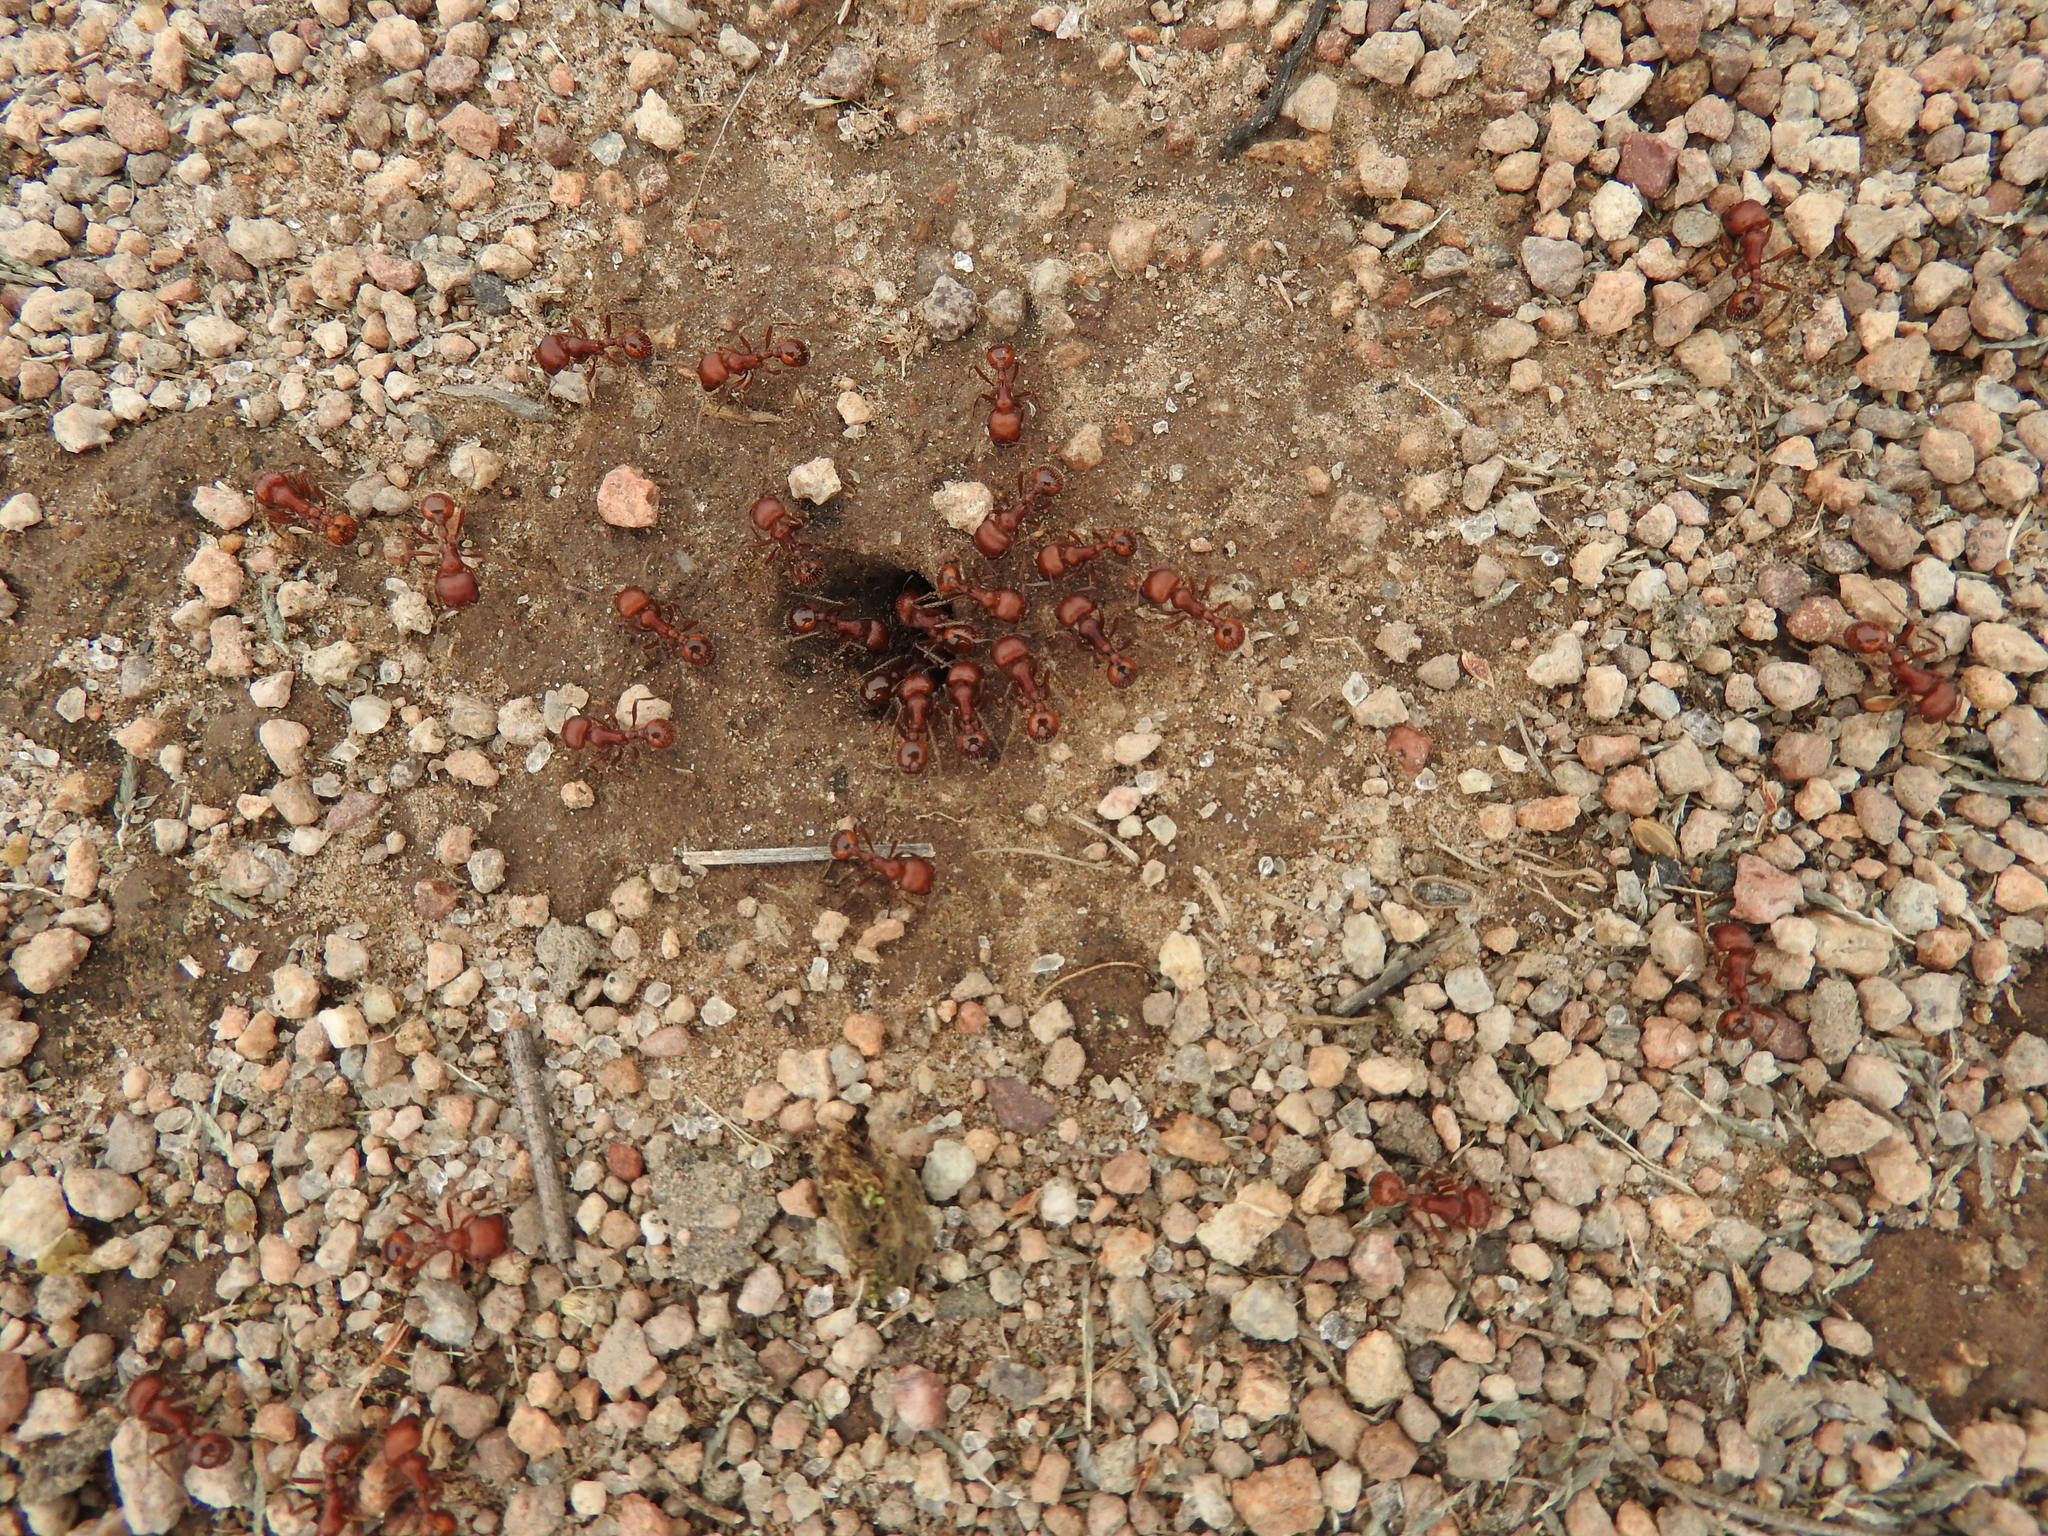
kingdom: Animalia
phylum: Arthropoda
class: Insecta
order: Hymenoptera
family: Formicidae
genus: Pogonomyrmex
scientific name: Pogonomyrmex barbatus
